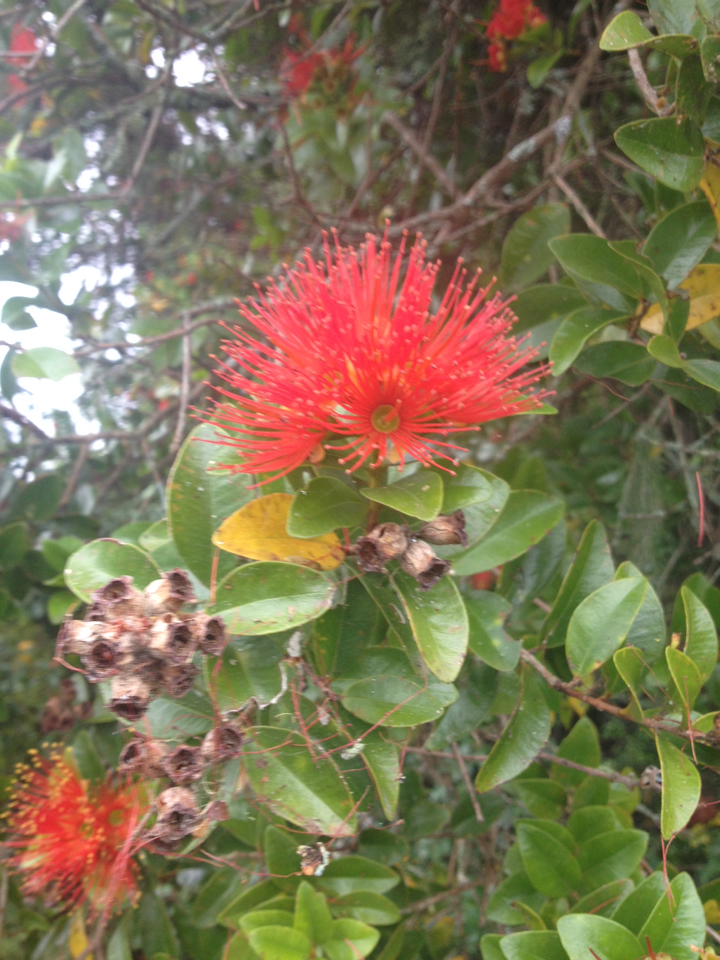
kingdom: Plantae
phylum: Tracheophyta
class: Magnoliopsida
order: Myrtales
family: Myrtaceae
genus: Metrosideros
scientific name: Metrosideros fulgens
